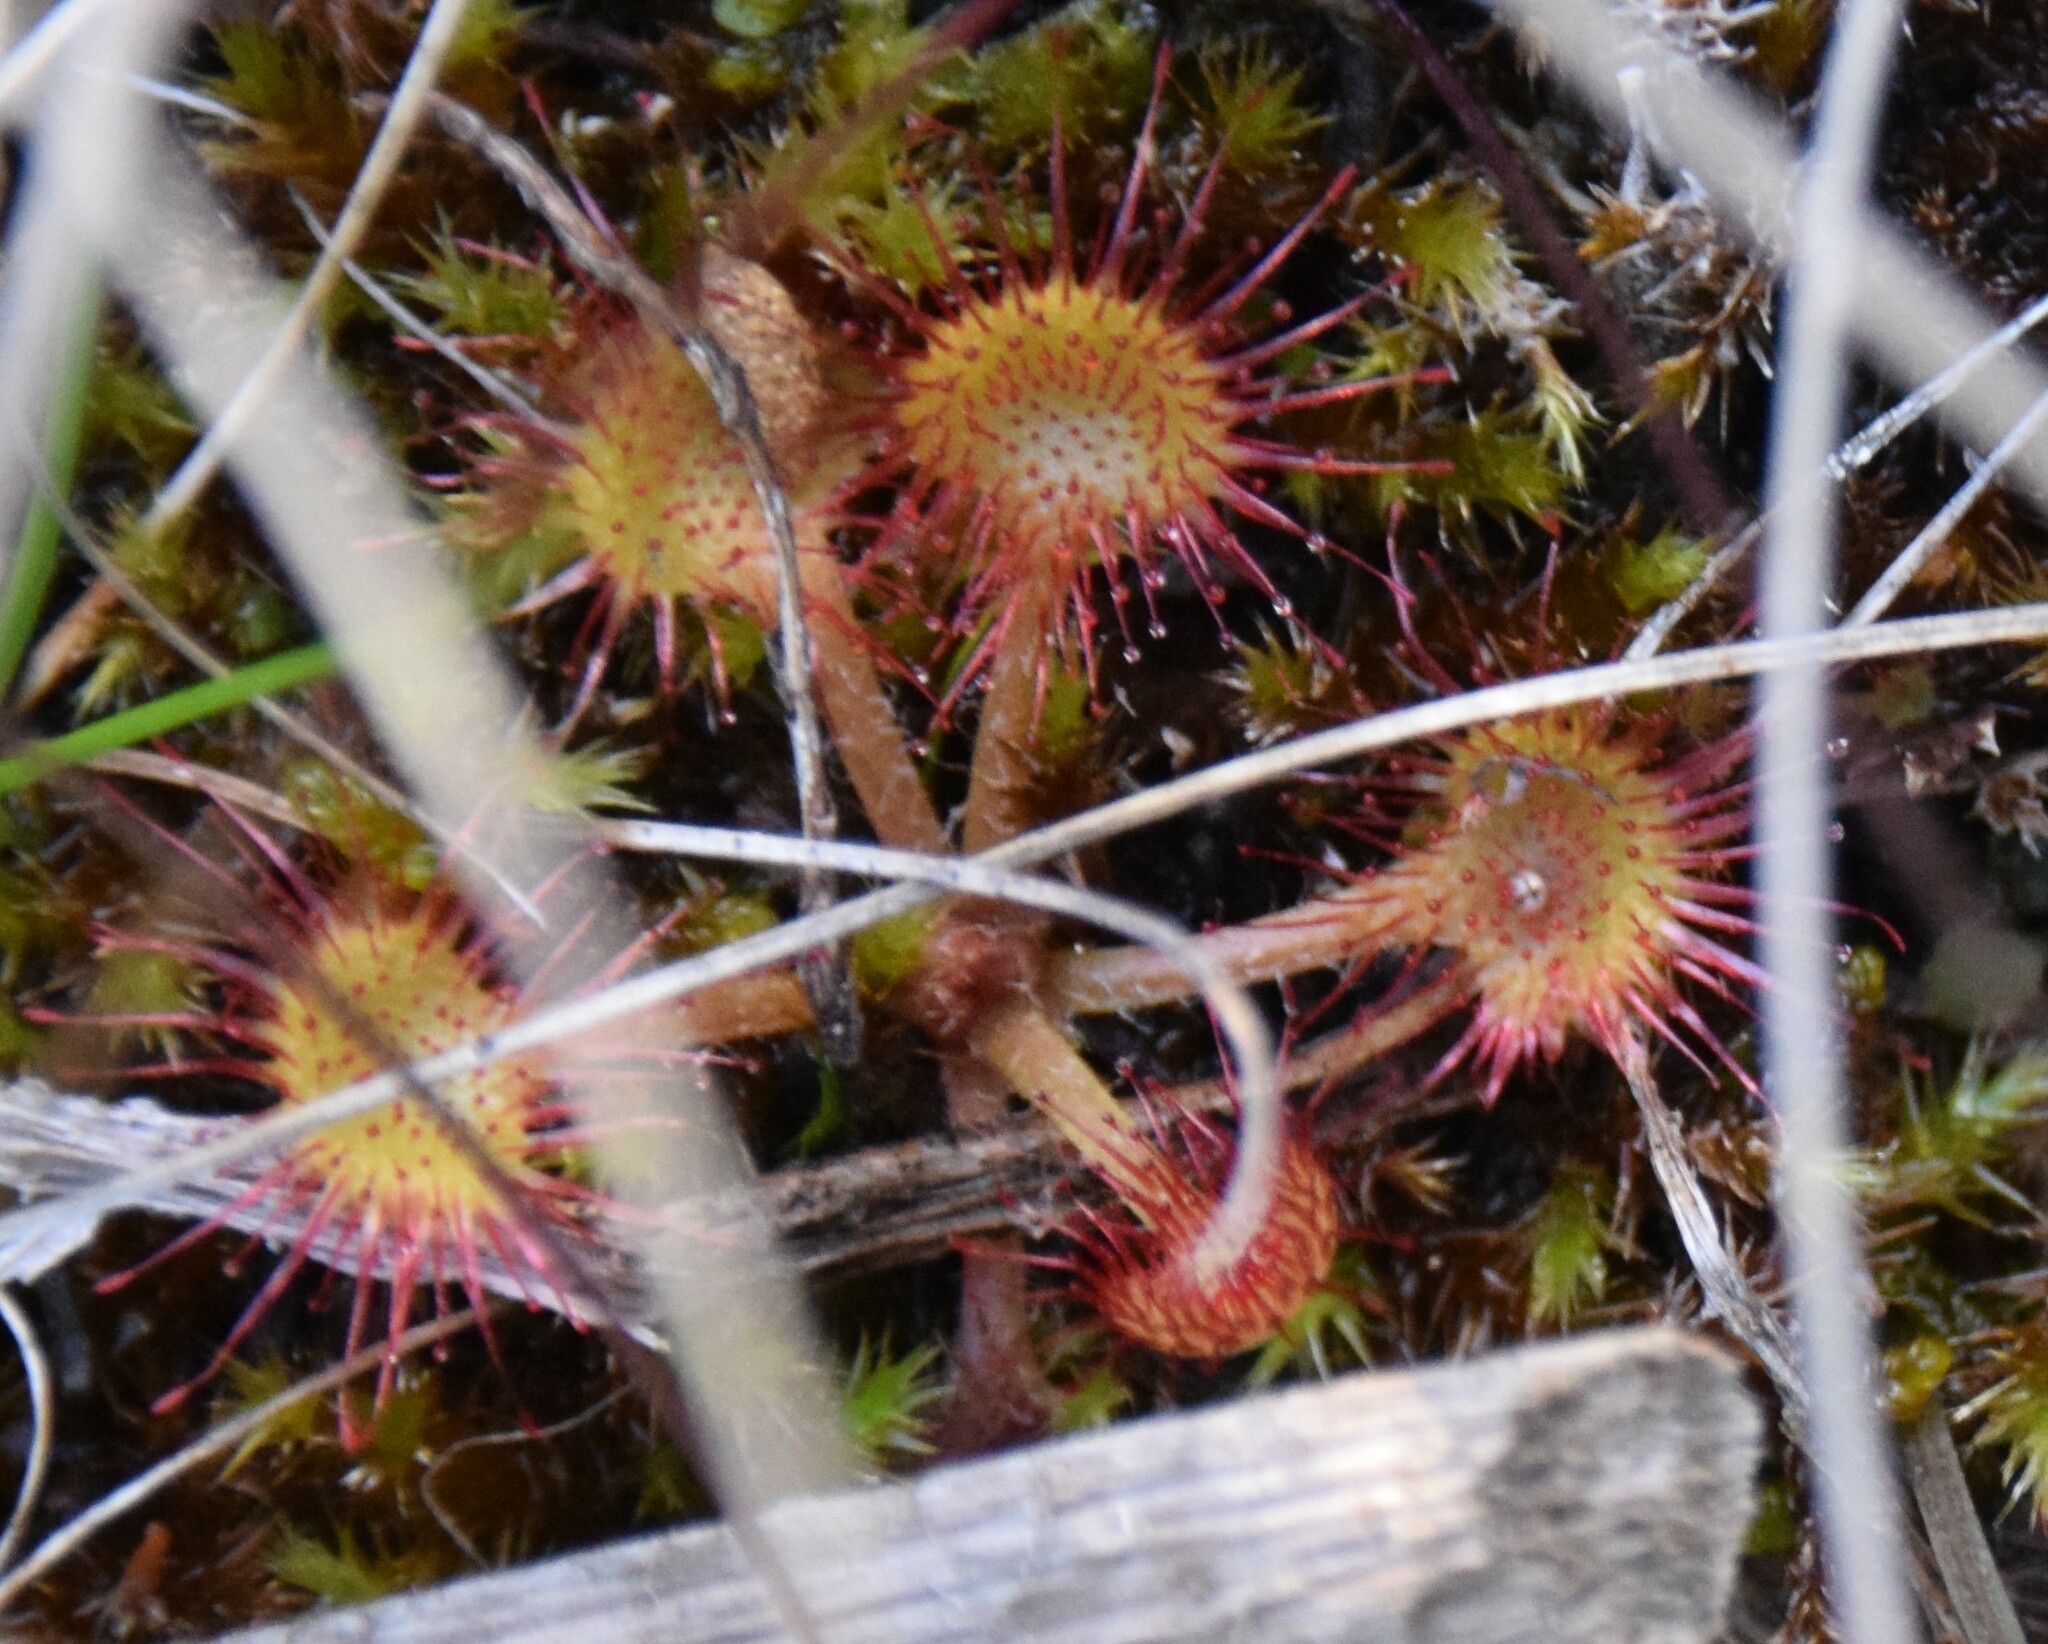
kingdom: Plantae
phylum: Tracheophyta
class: Magnoliopsida
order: Caryophyllales
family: Droseraceae
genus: Drosera
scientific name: Drosera rotundifolia
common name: Round-leaved sundew
